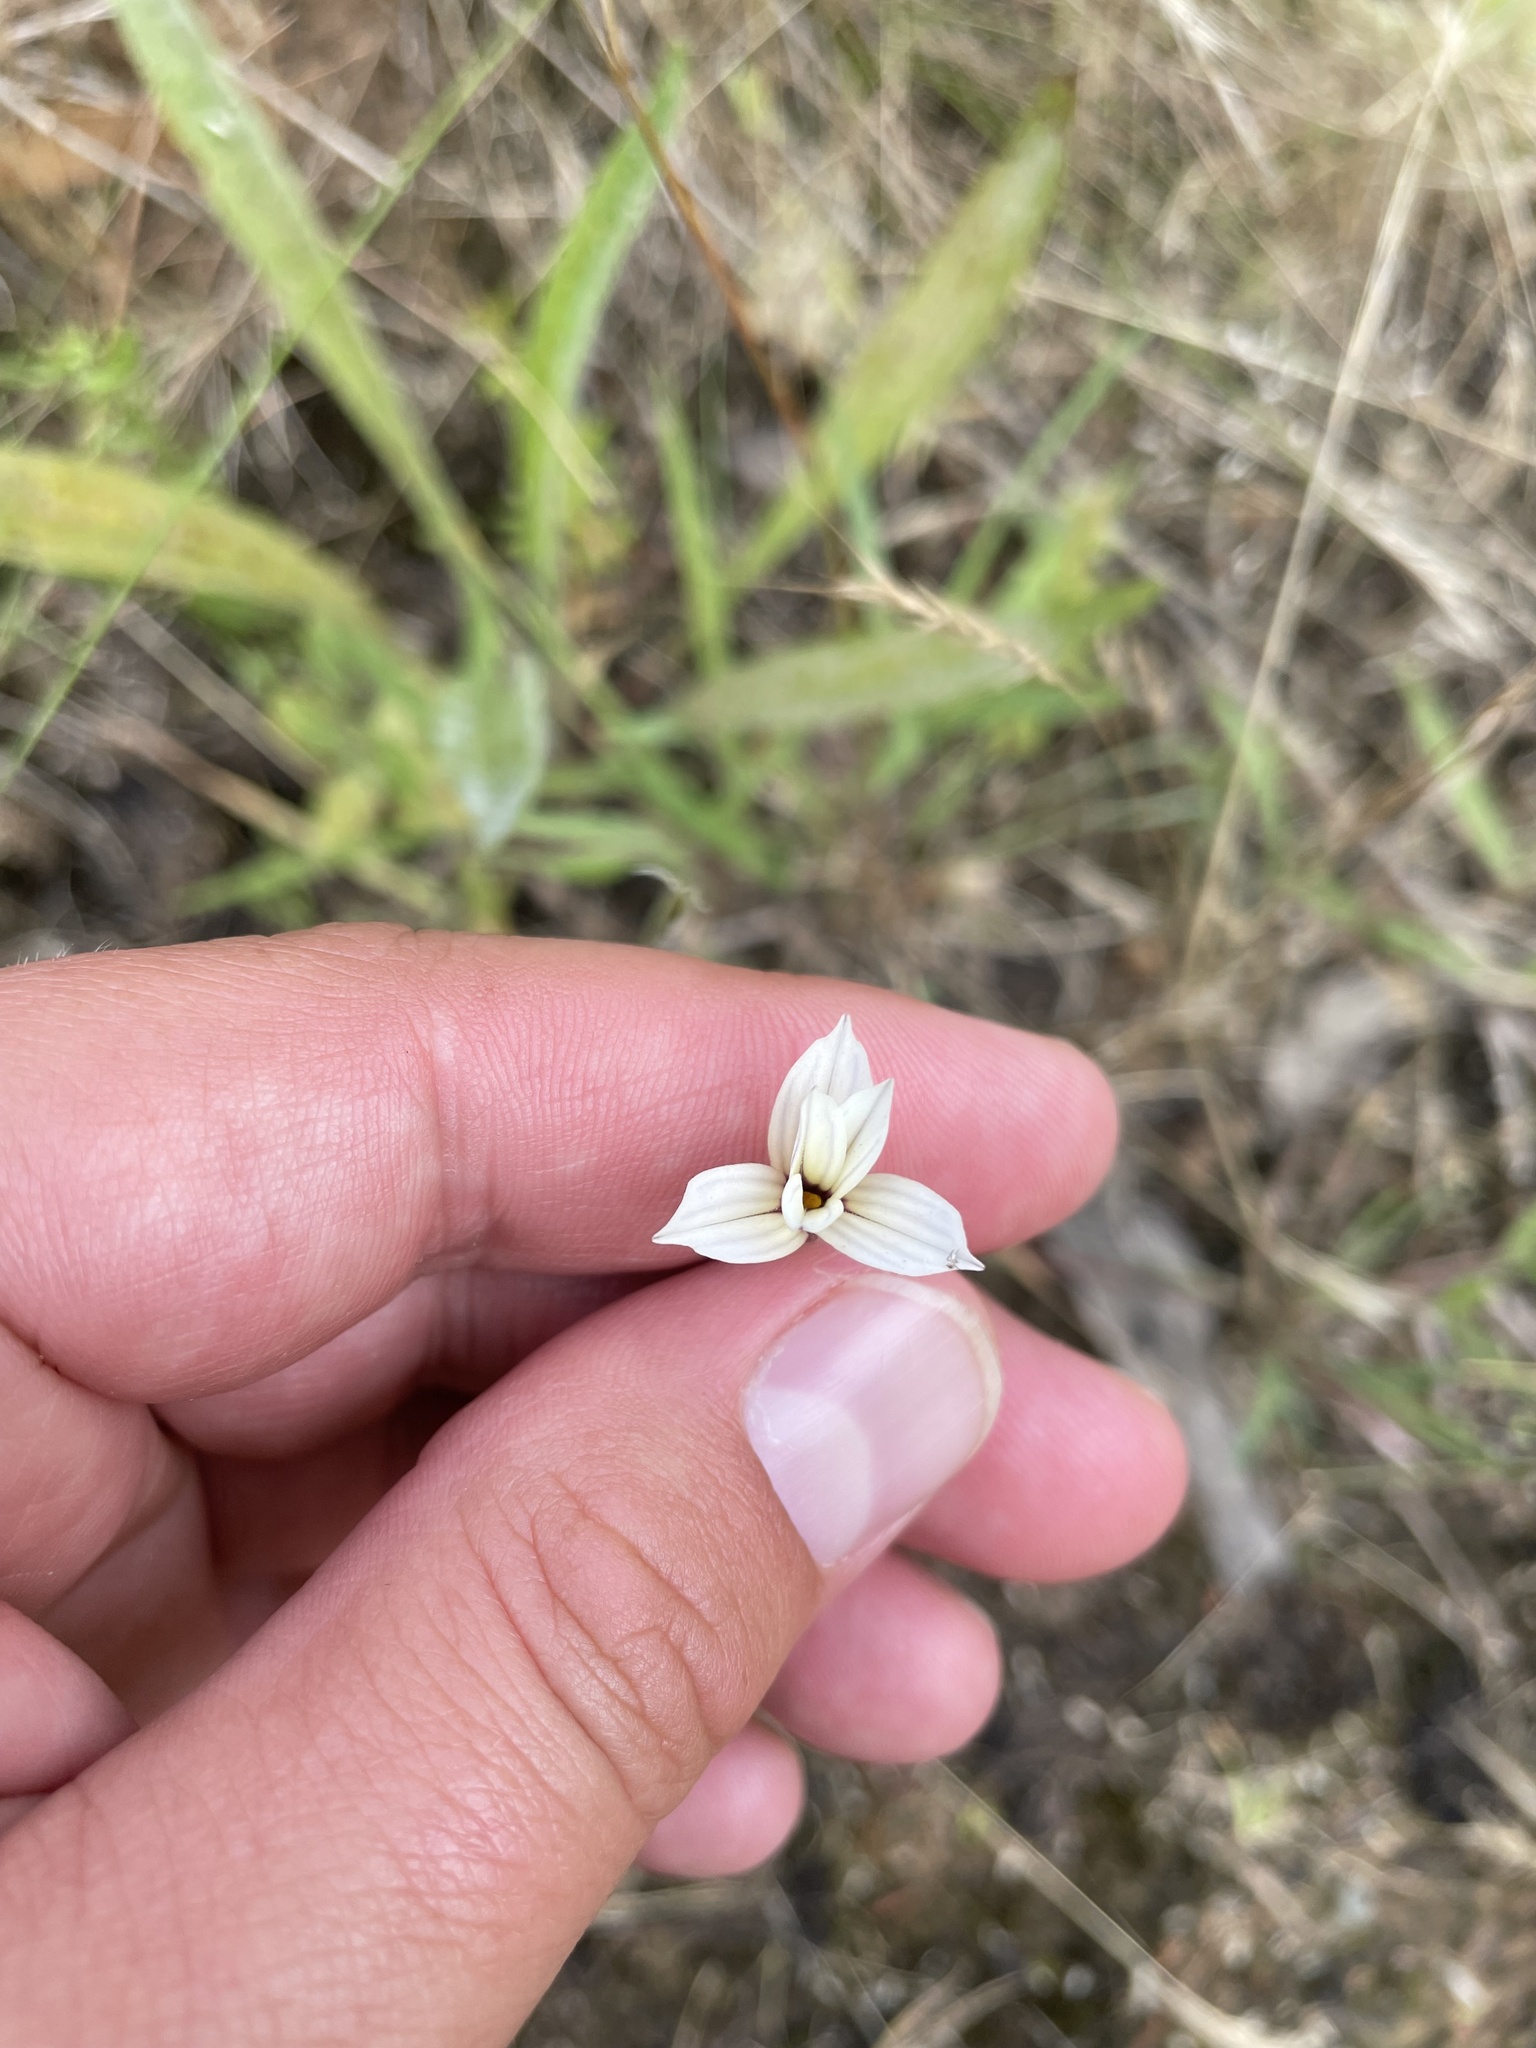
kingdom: Plantae
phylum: Tracheophyta
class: Liliopsida
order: Asparagales
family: Iridaceae
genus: Sisyrinchium
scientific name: Sisyrinchium micranthum
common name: Bermuda pigroot
